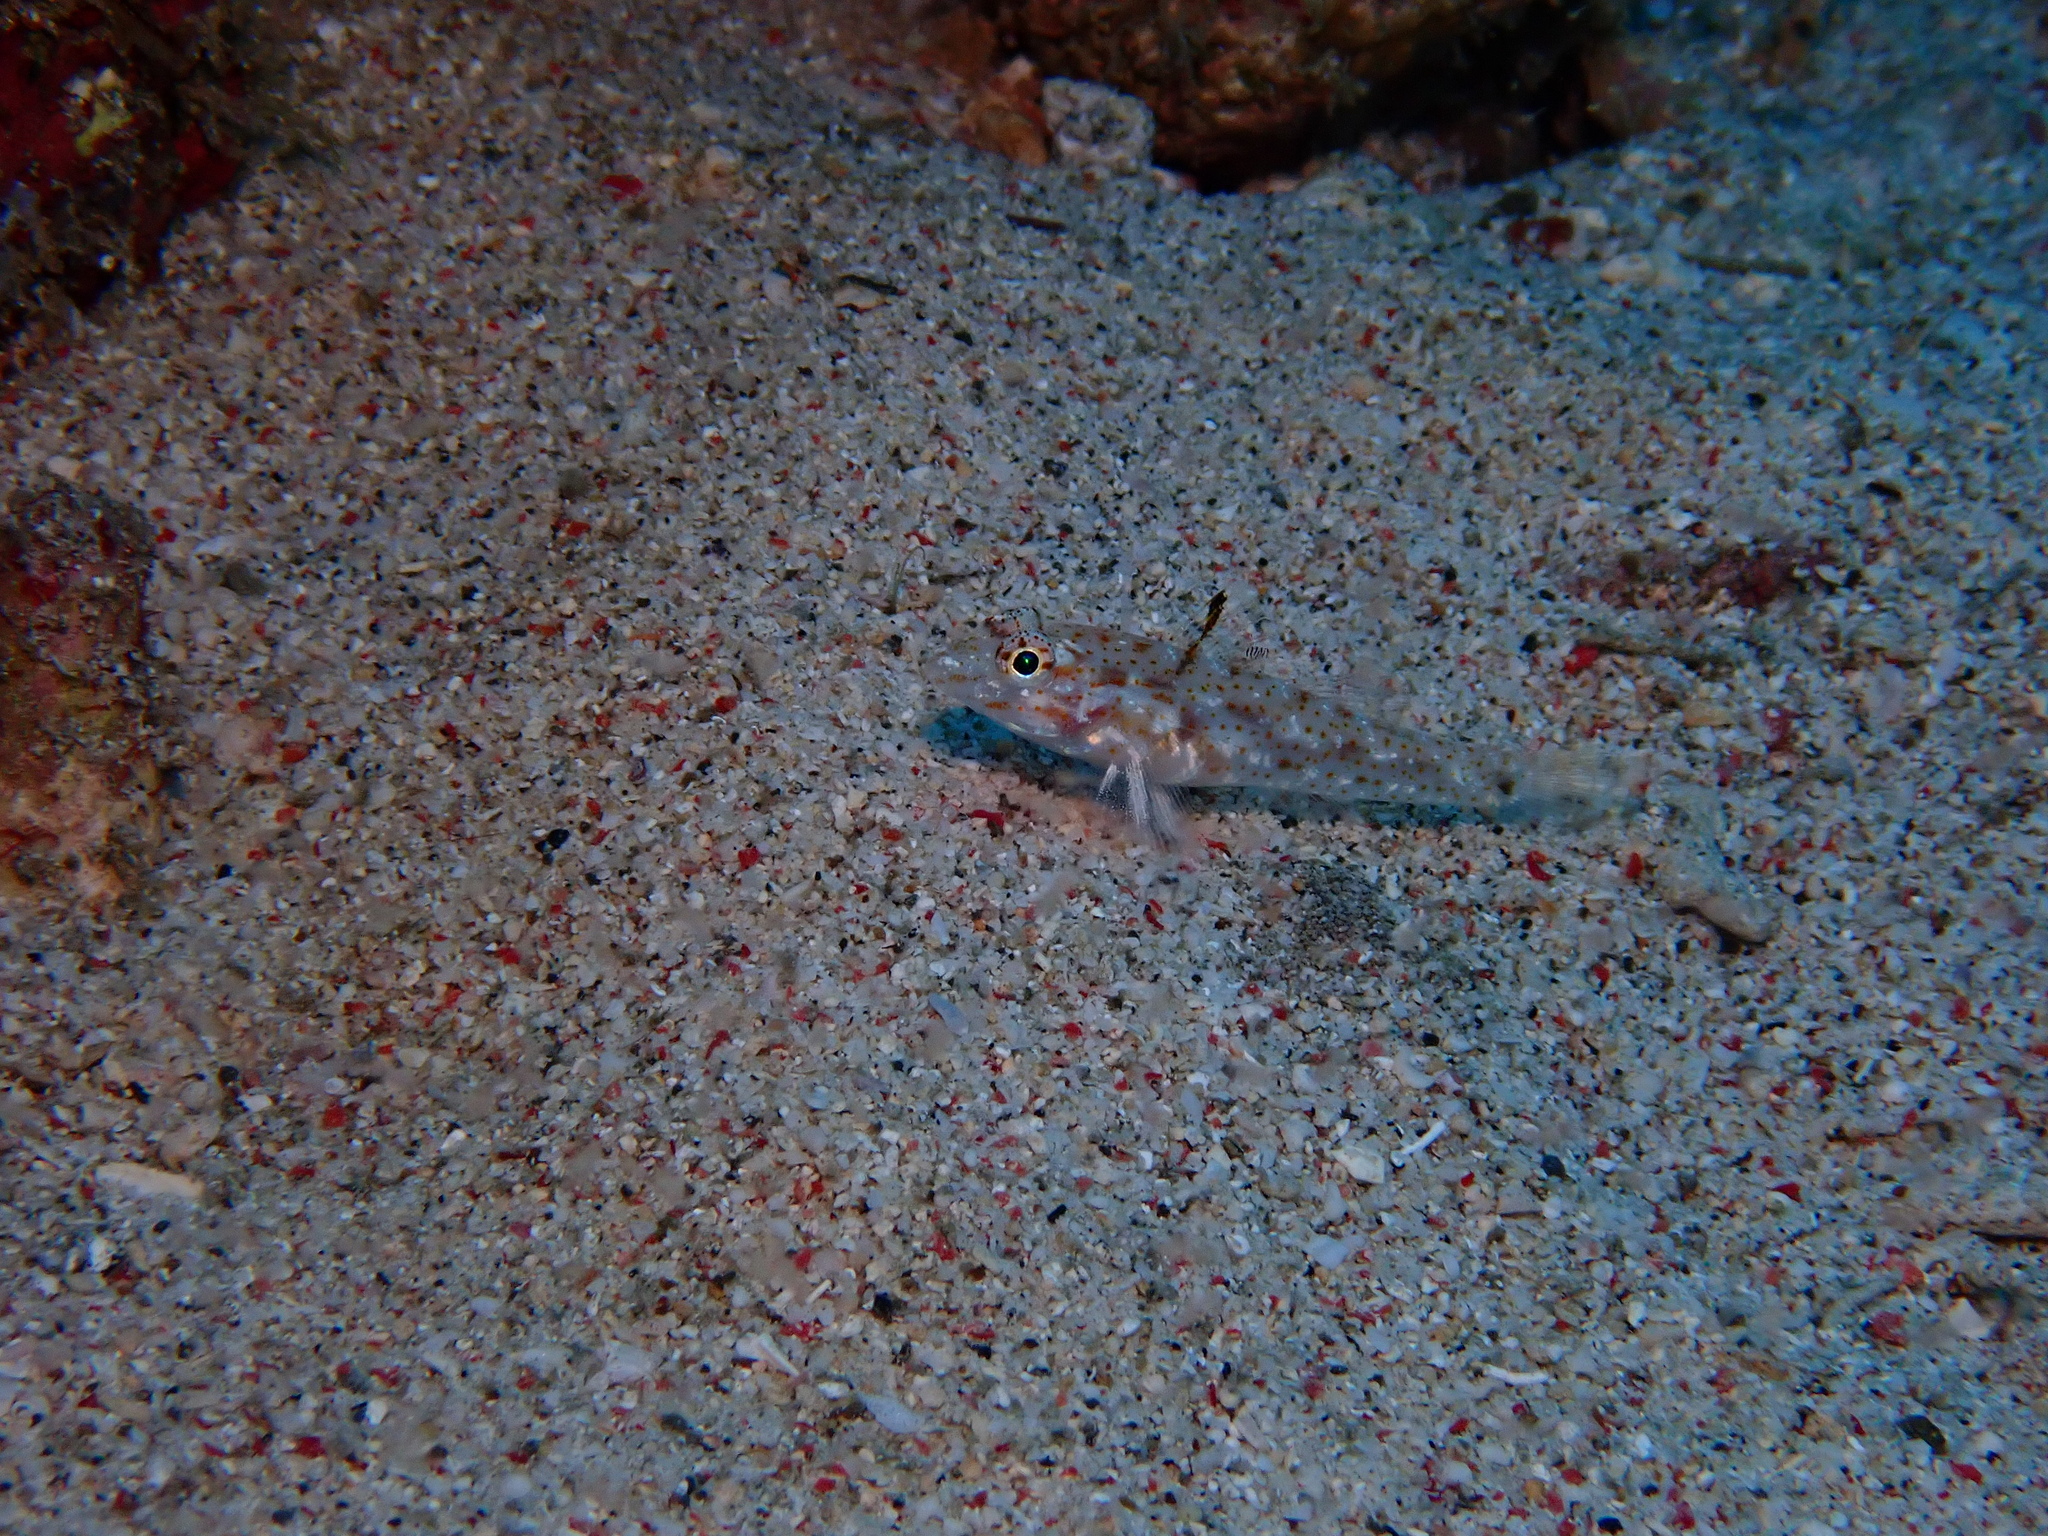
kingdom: Animalia
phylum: Chordata
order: Perciformes
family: Gobiidae
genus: Fusigobius
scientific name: Fusigobius duospilus
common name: Twospot goby
